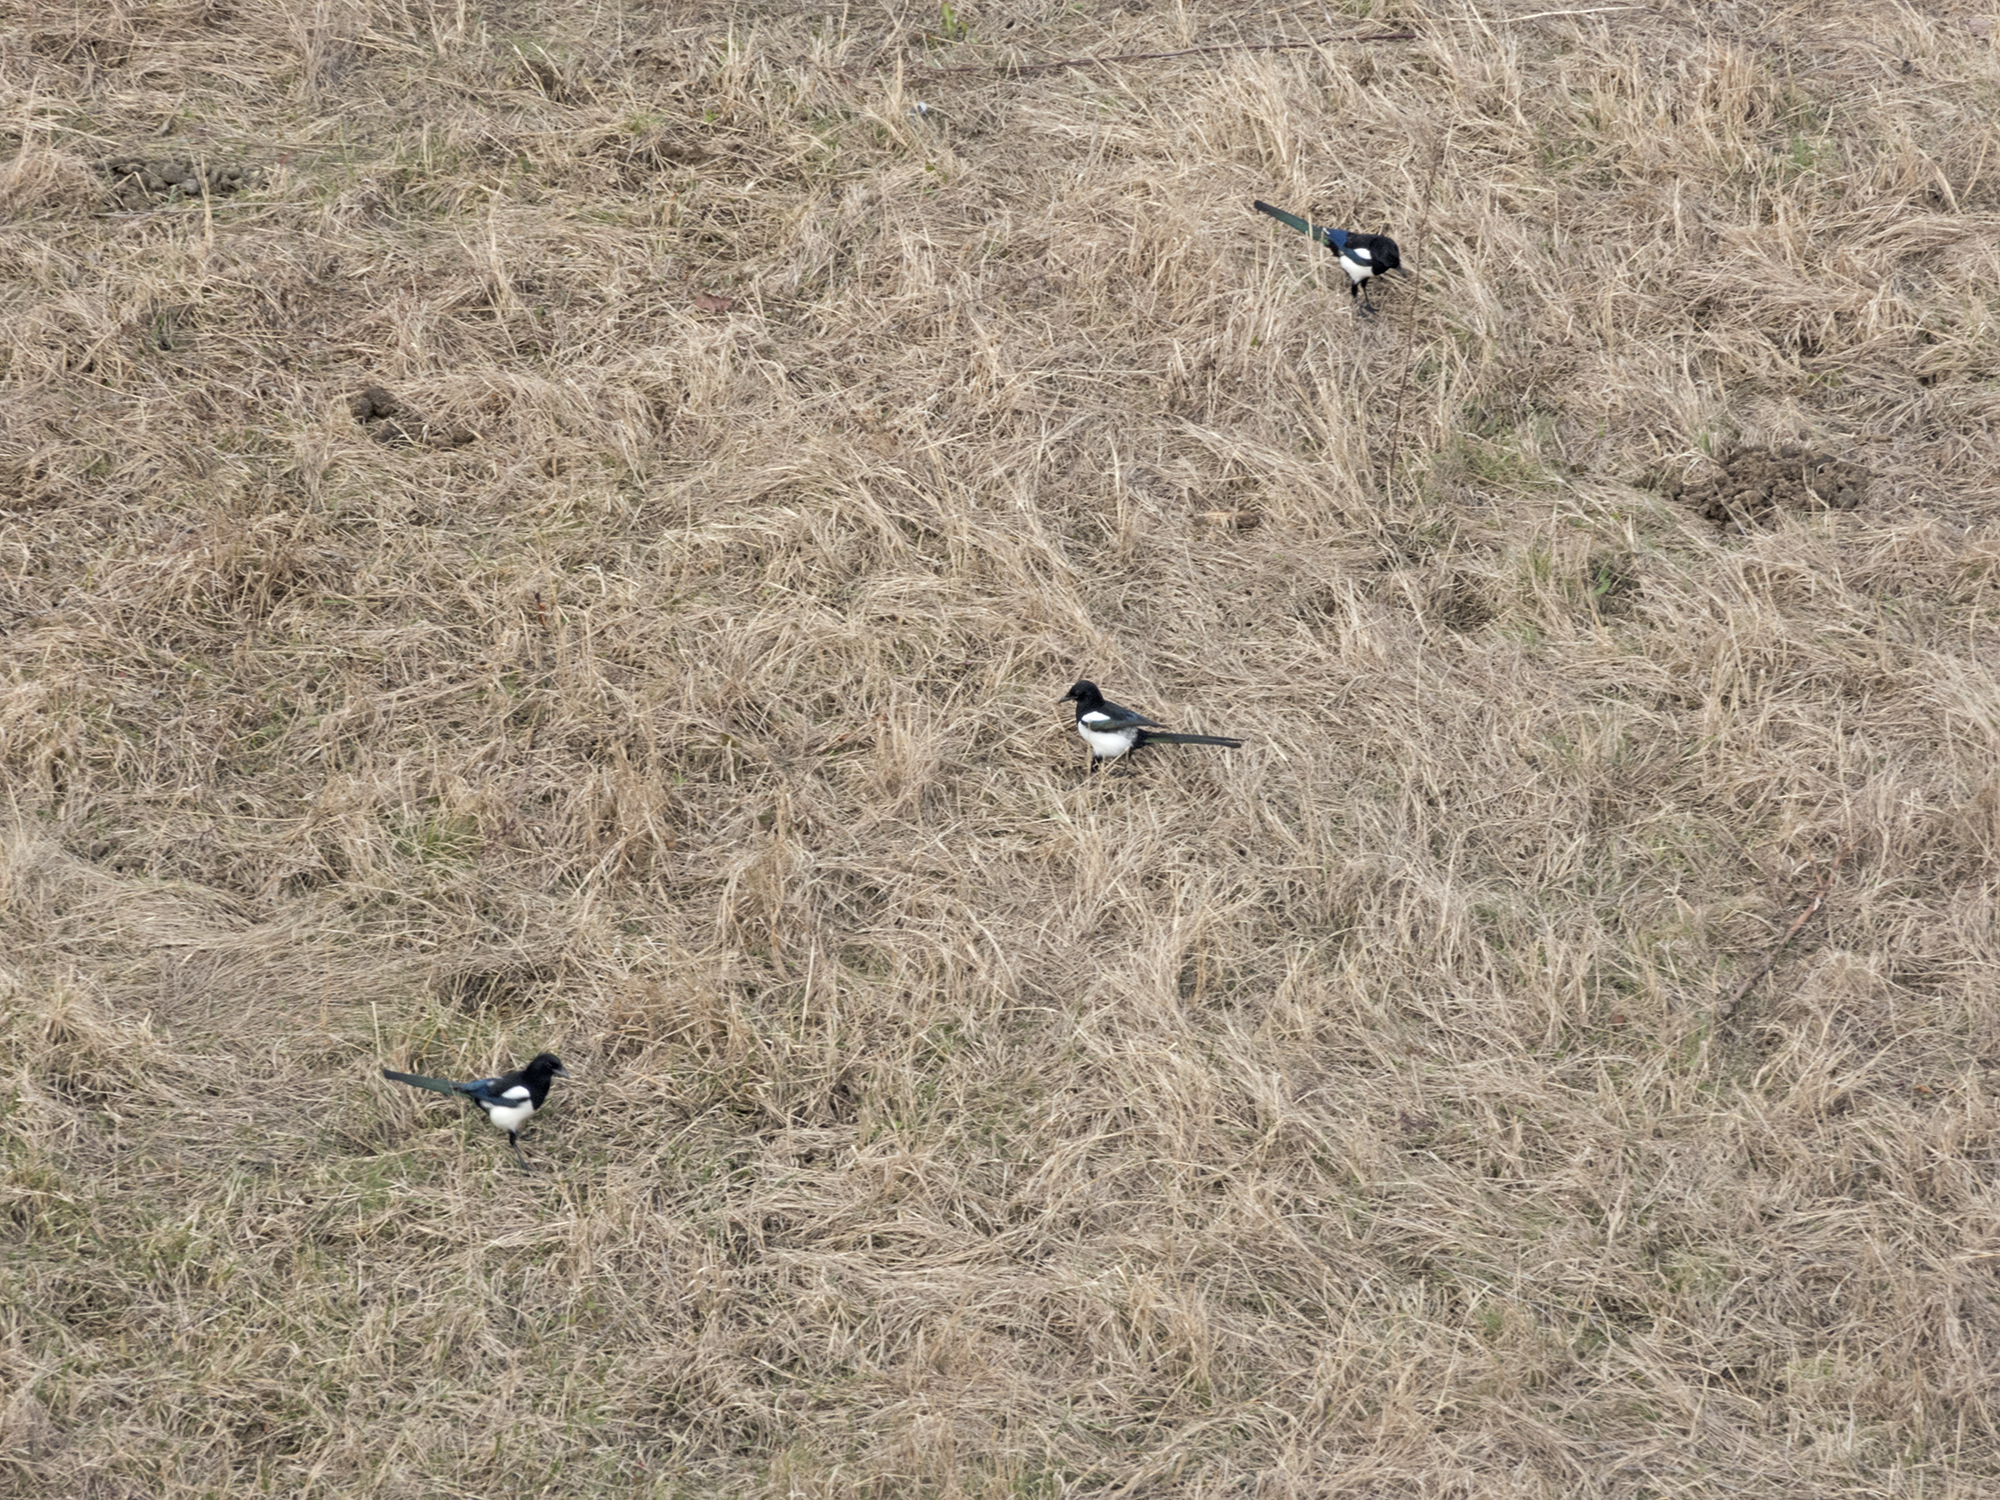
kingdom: Animalia
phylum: Chordata
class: Aves
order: Passeriformes
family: Corvidae
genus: Pica
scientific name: Pica pica
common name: Eurasian magpie
